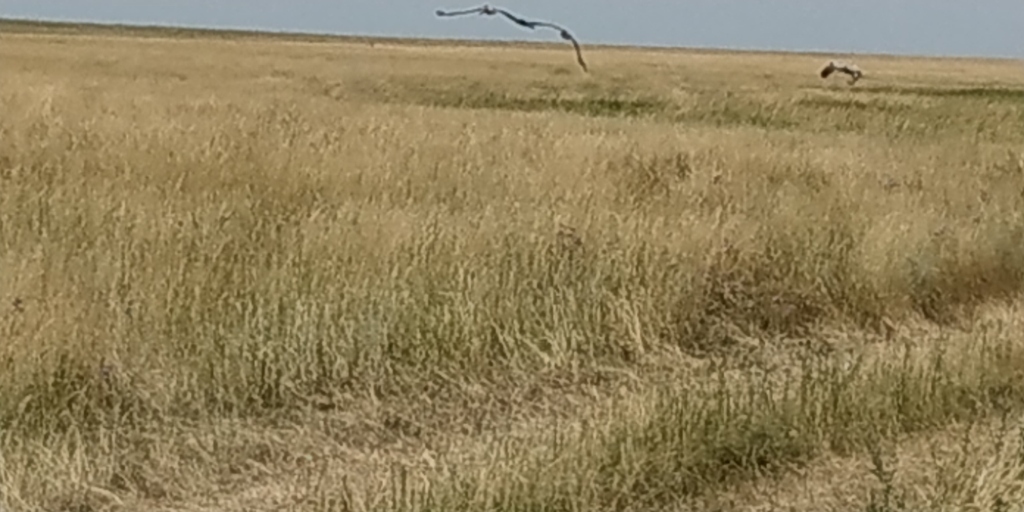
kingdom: Animalia
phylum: Chordata
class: Aves
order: Gruiformes
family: Gruidae
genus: Grus
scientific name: Grus grus
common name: Common crane
